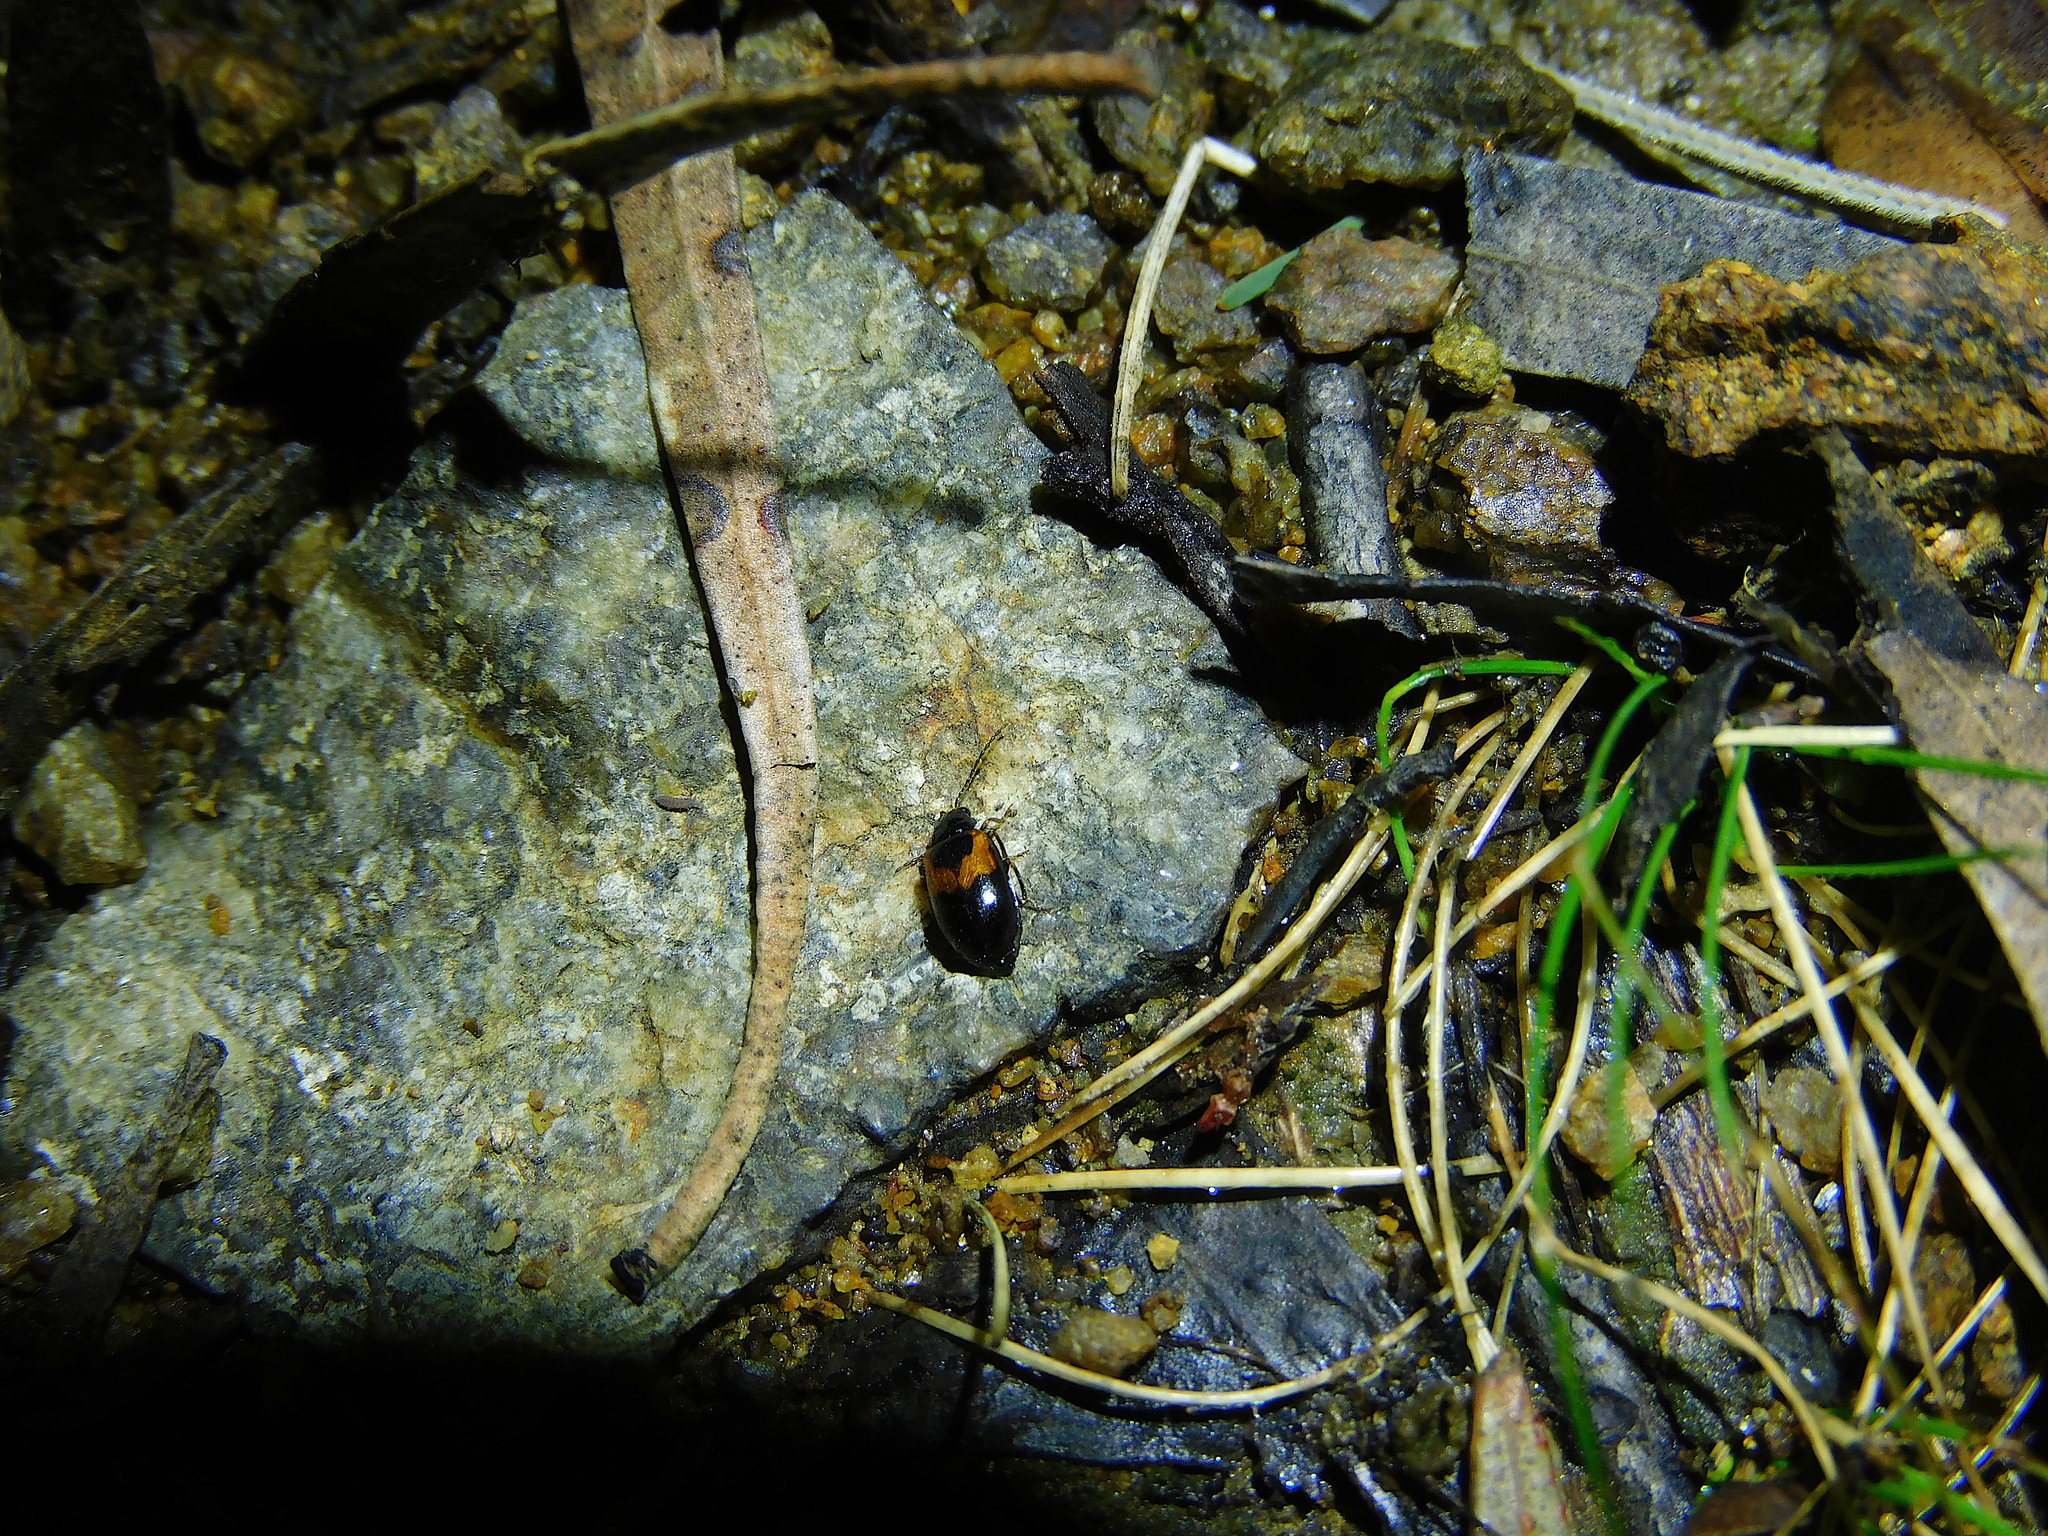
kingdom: Animalia
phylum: Arthropoda
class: Insecta
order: Coleoptera
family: Chrysomelidae
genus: Monolepta
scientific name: Monolepta
